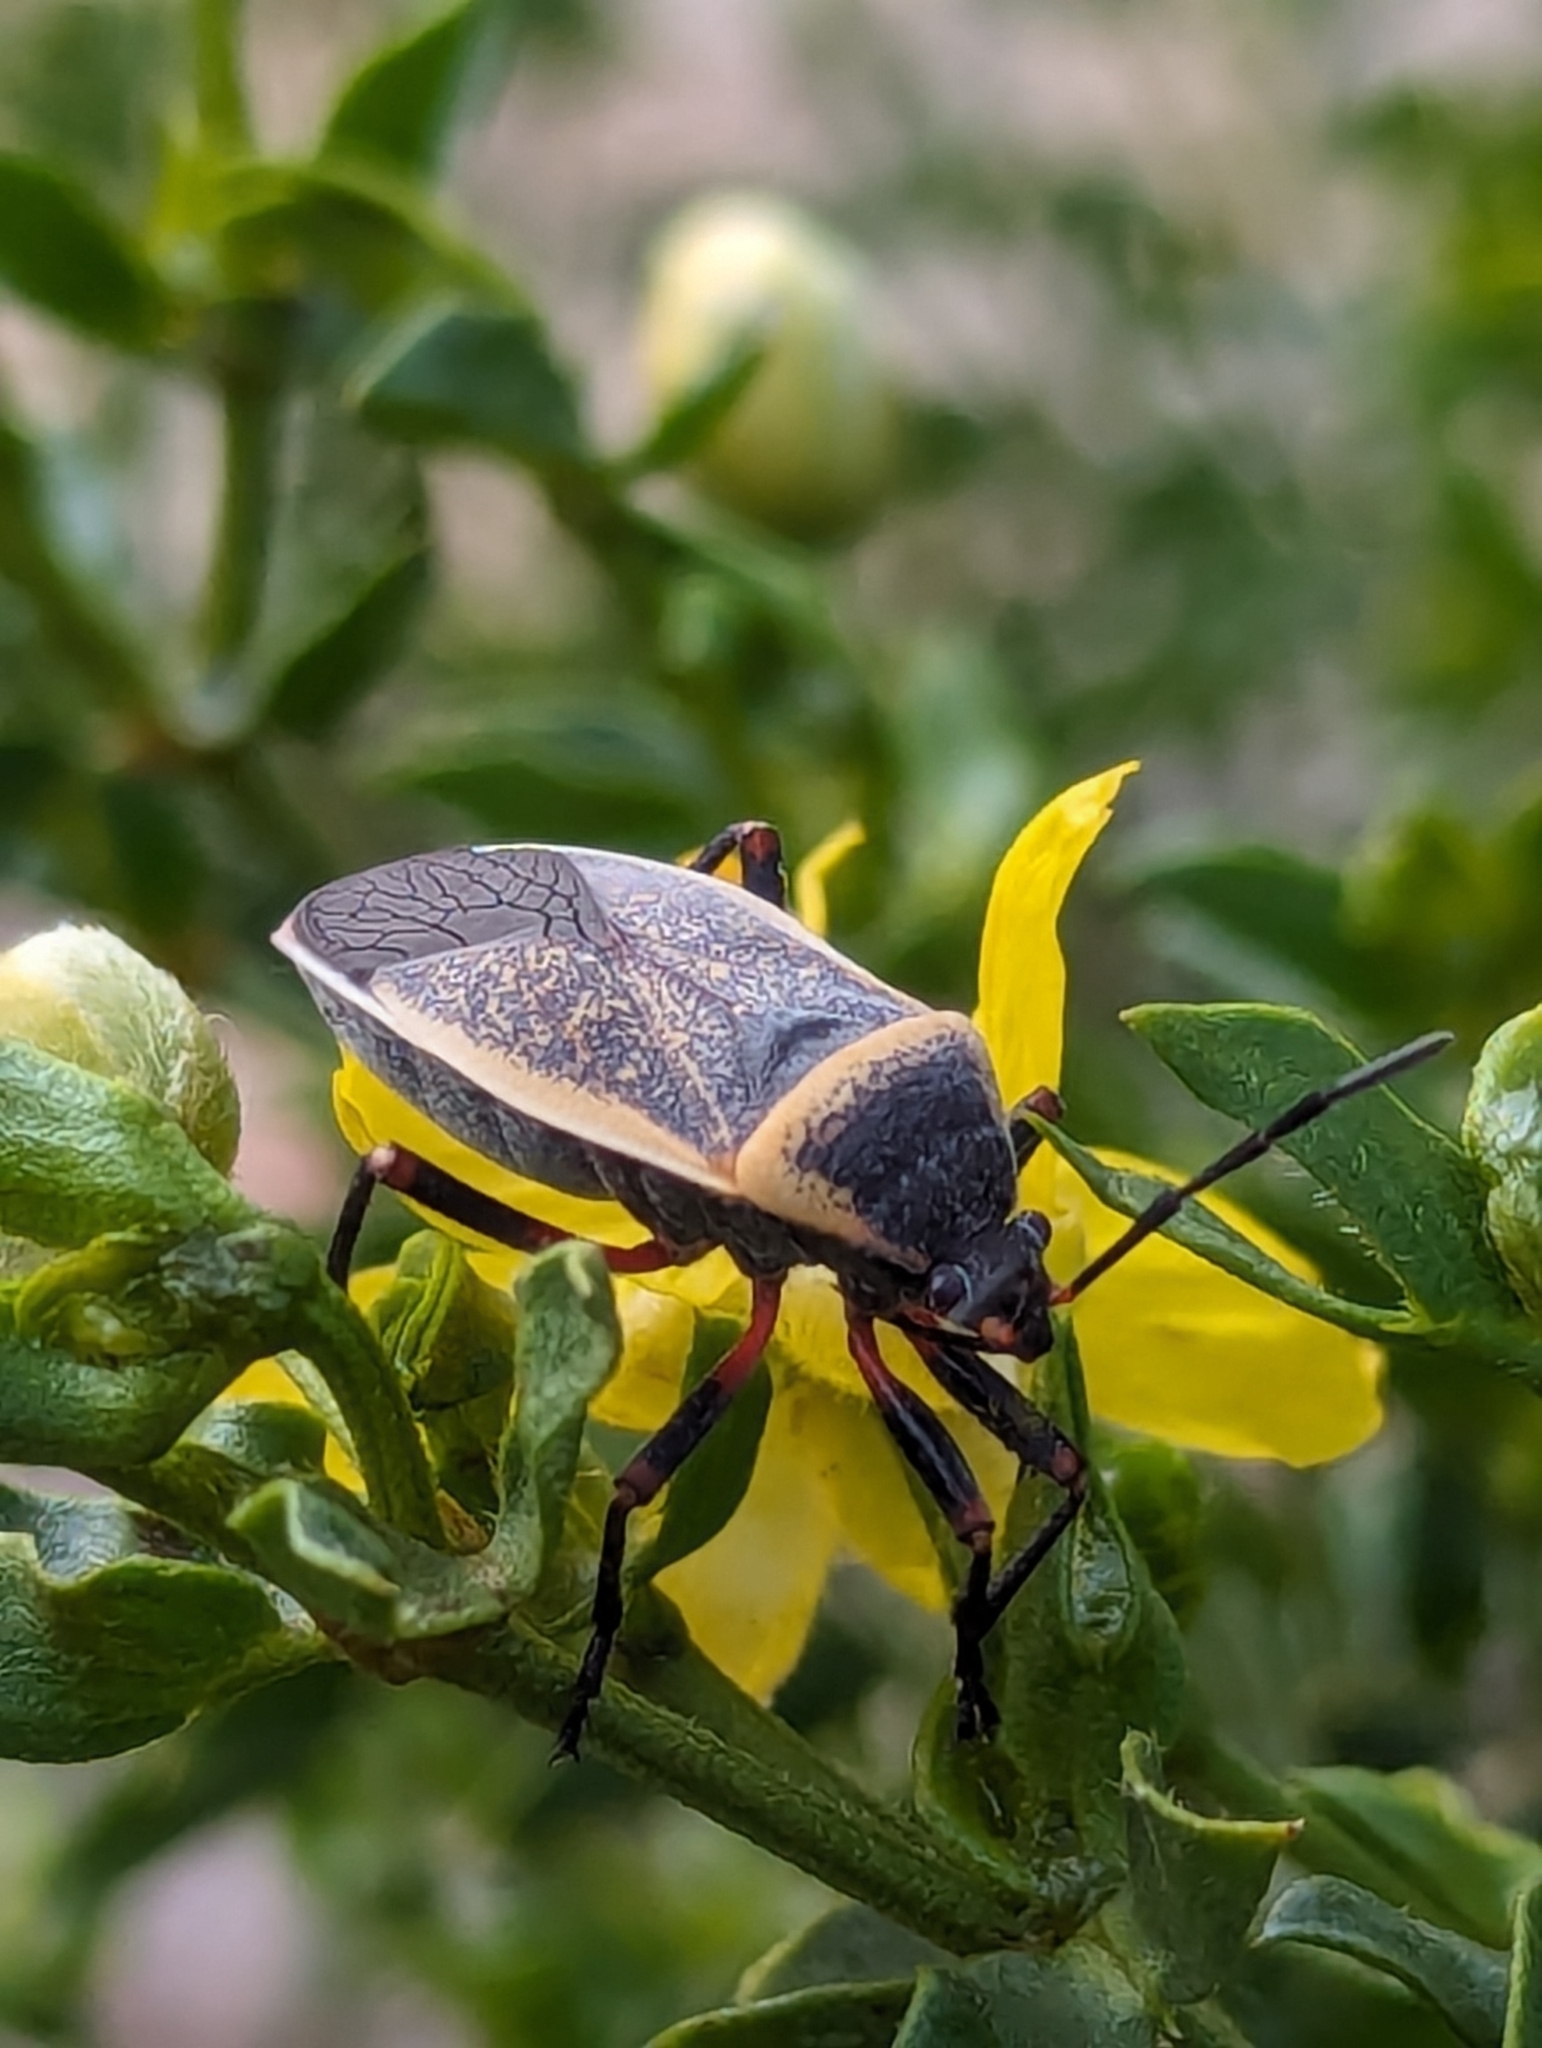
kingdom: Animalia
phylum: Arthropoda
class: Insecta
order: Hemiptera
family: Largidae
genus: Largus
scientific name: Largus californicus
